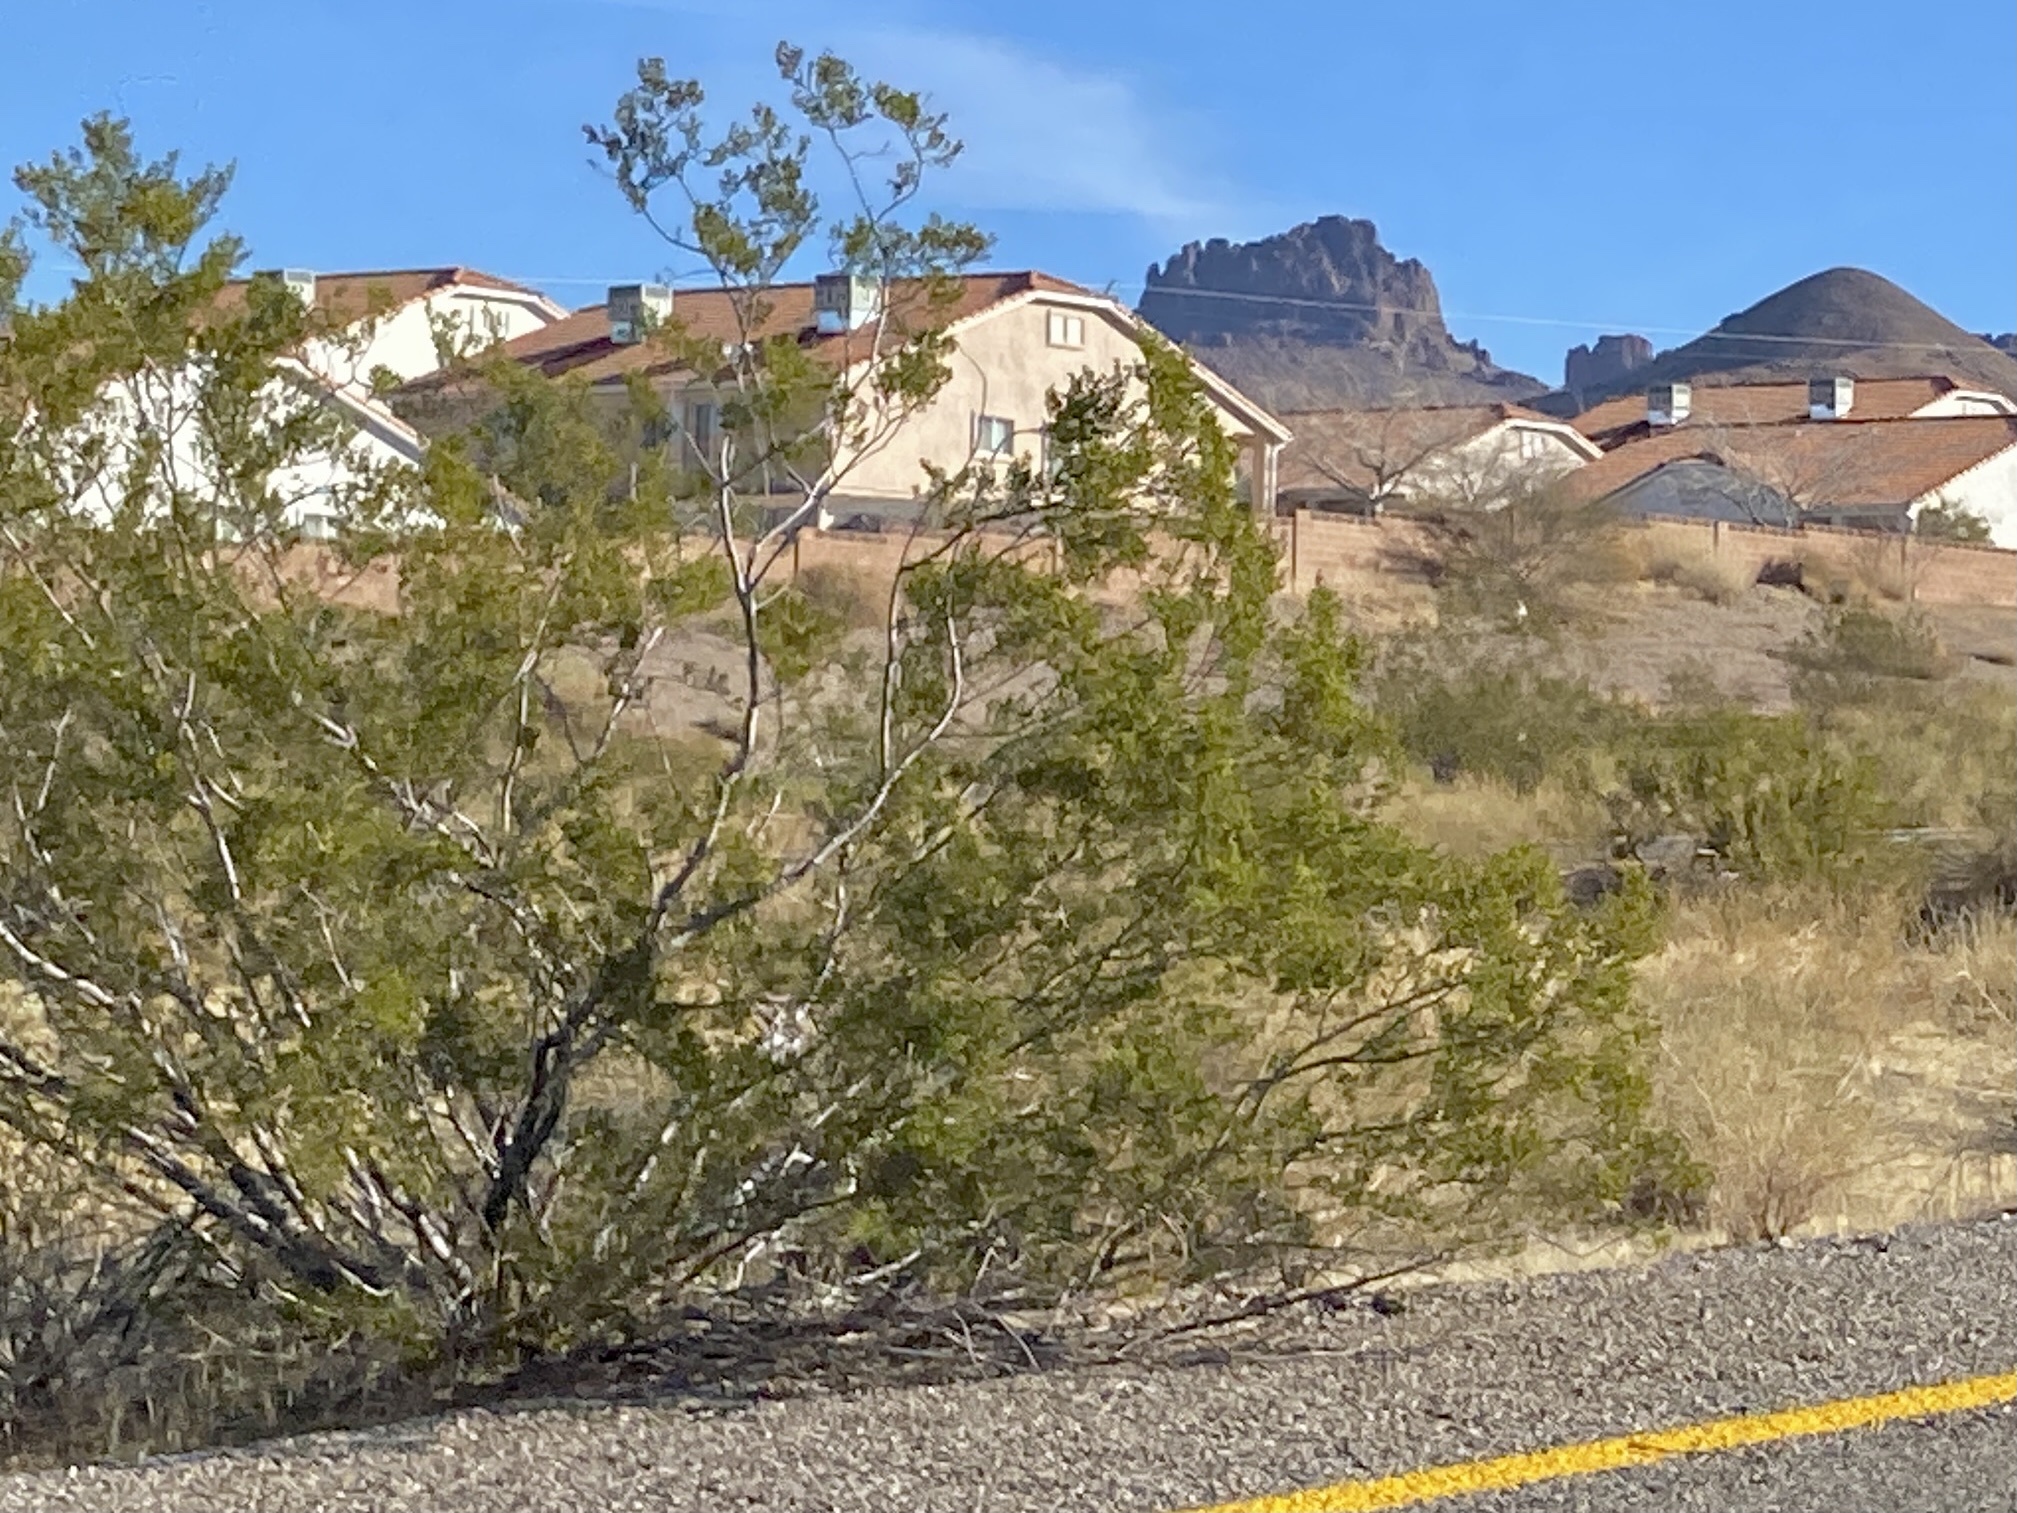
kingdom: Plantae
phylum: Tracheophyta
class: Magnoliopsida
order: Zygophyllales
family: Zygophyllaceae
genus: Larrea
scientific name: Larrea tridentata
